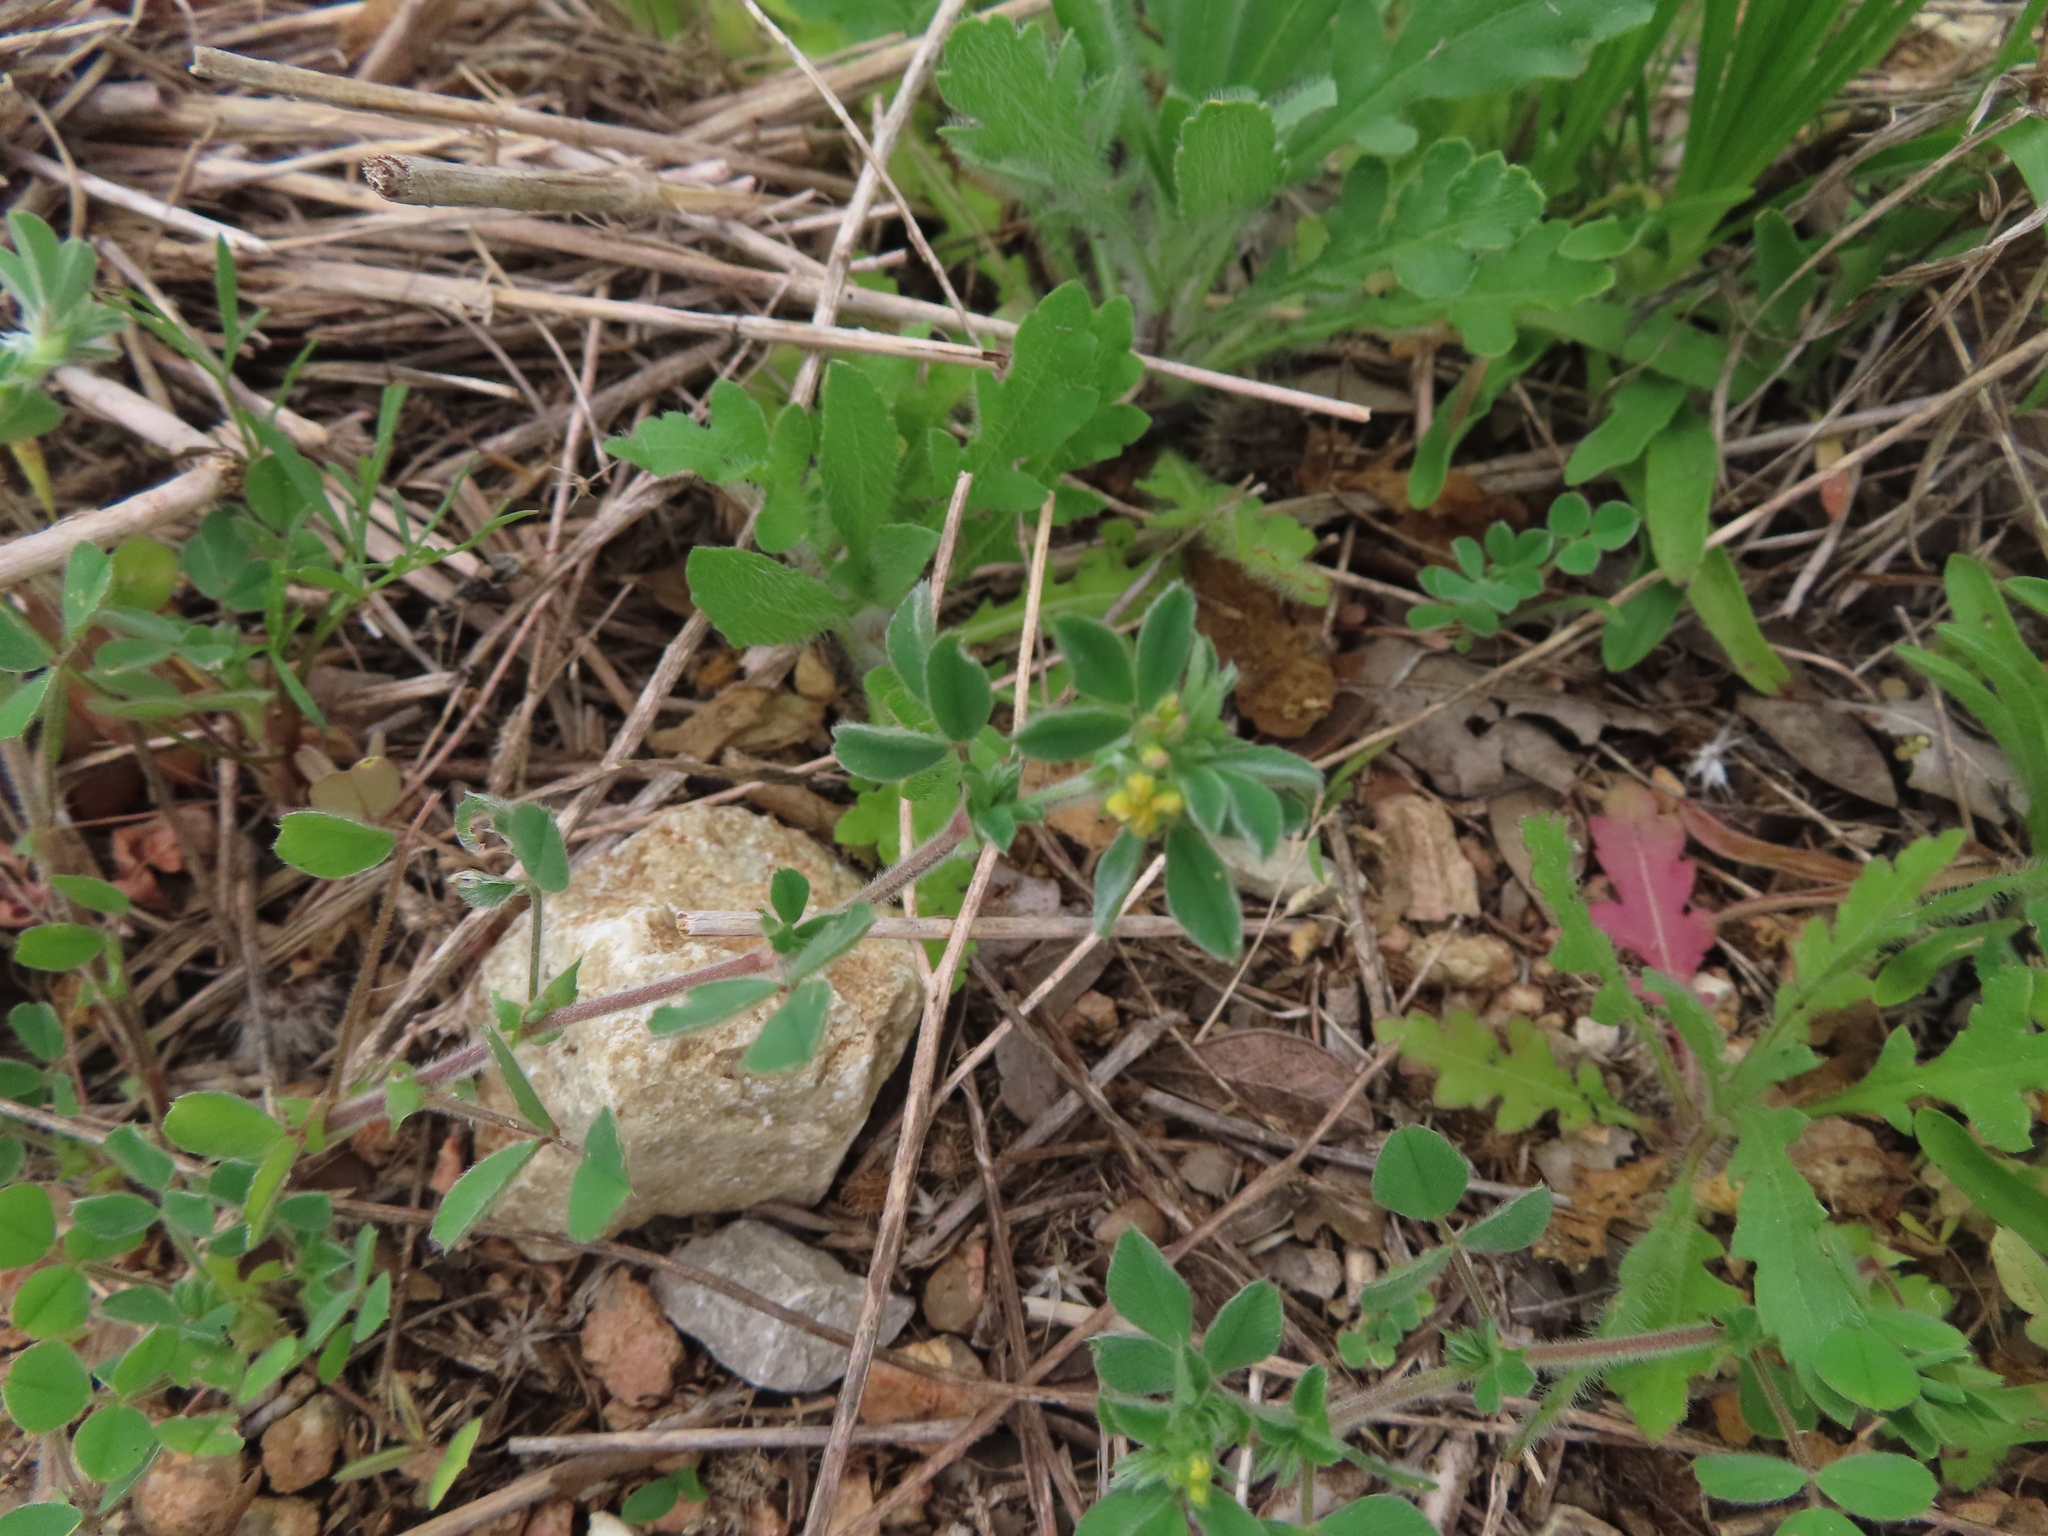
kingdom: Plantae
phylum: Tracheophyta
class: Magnoliopsida
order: Fabales
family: Fabaceae
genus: Medicago
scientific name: Medicago minima
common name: Little bur-clover
